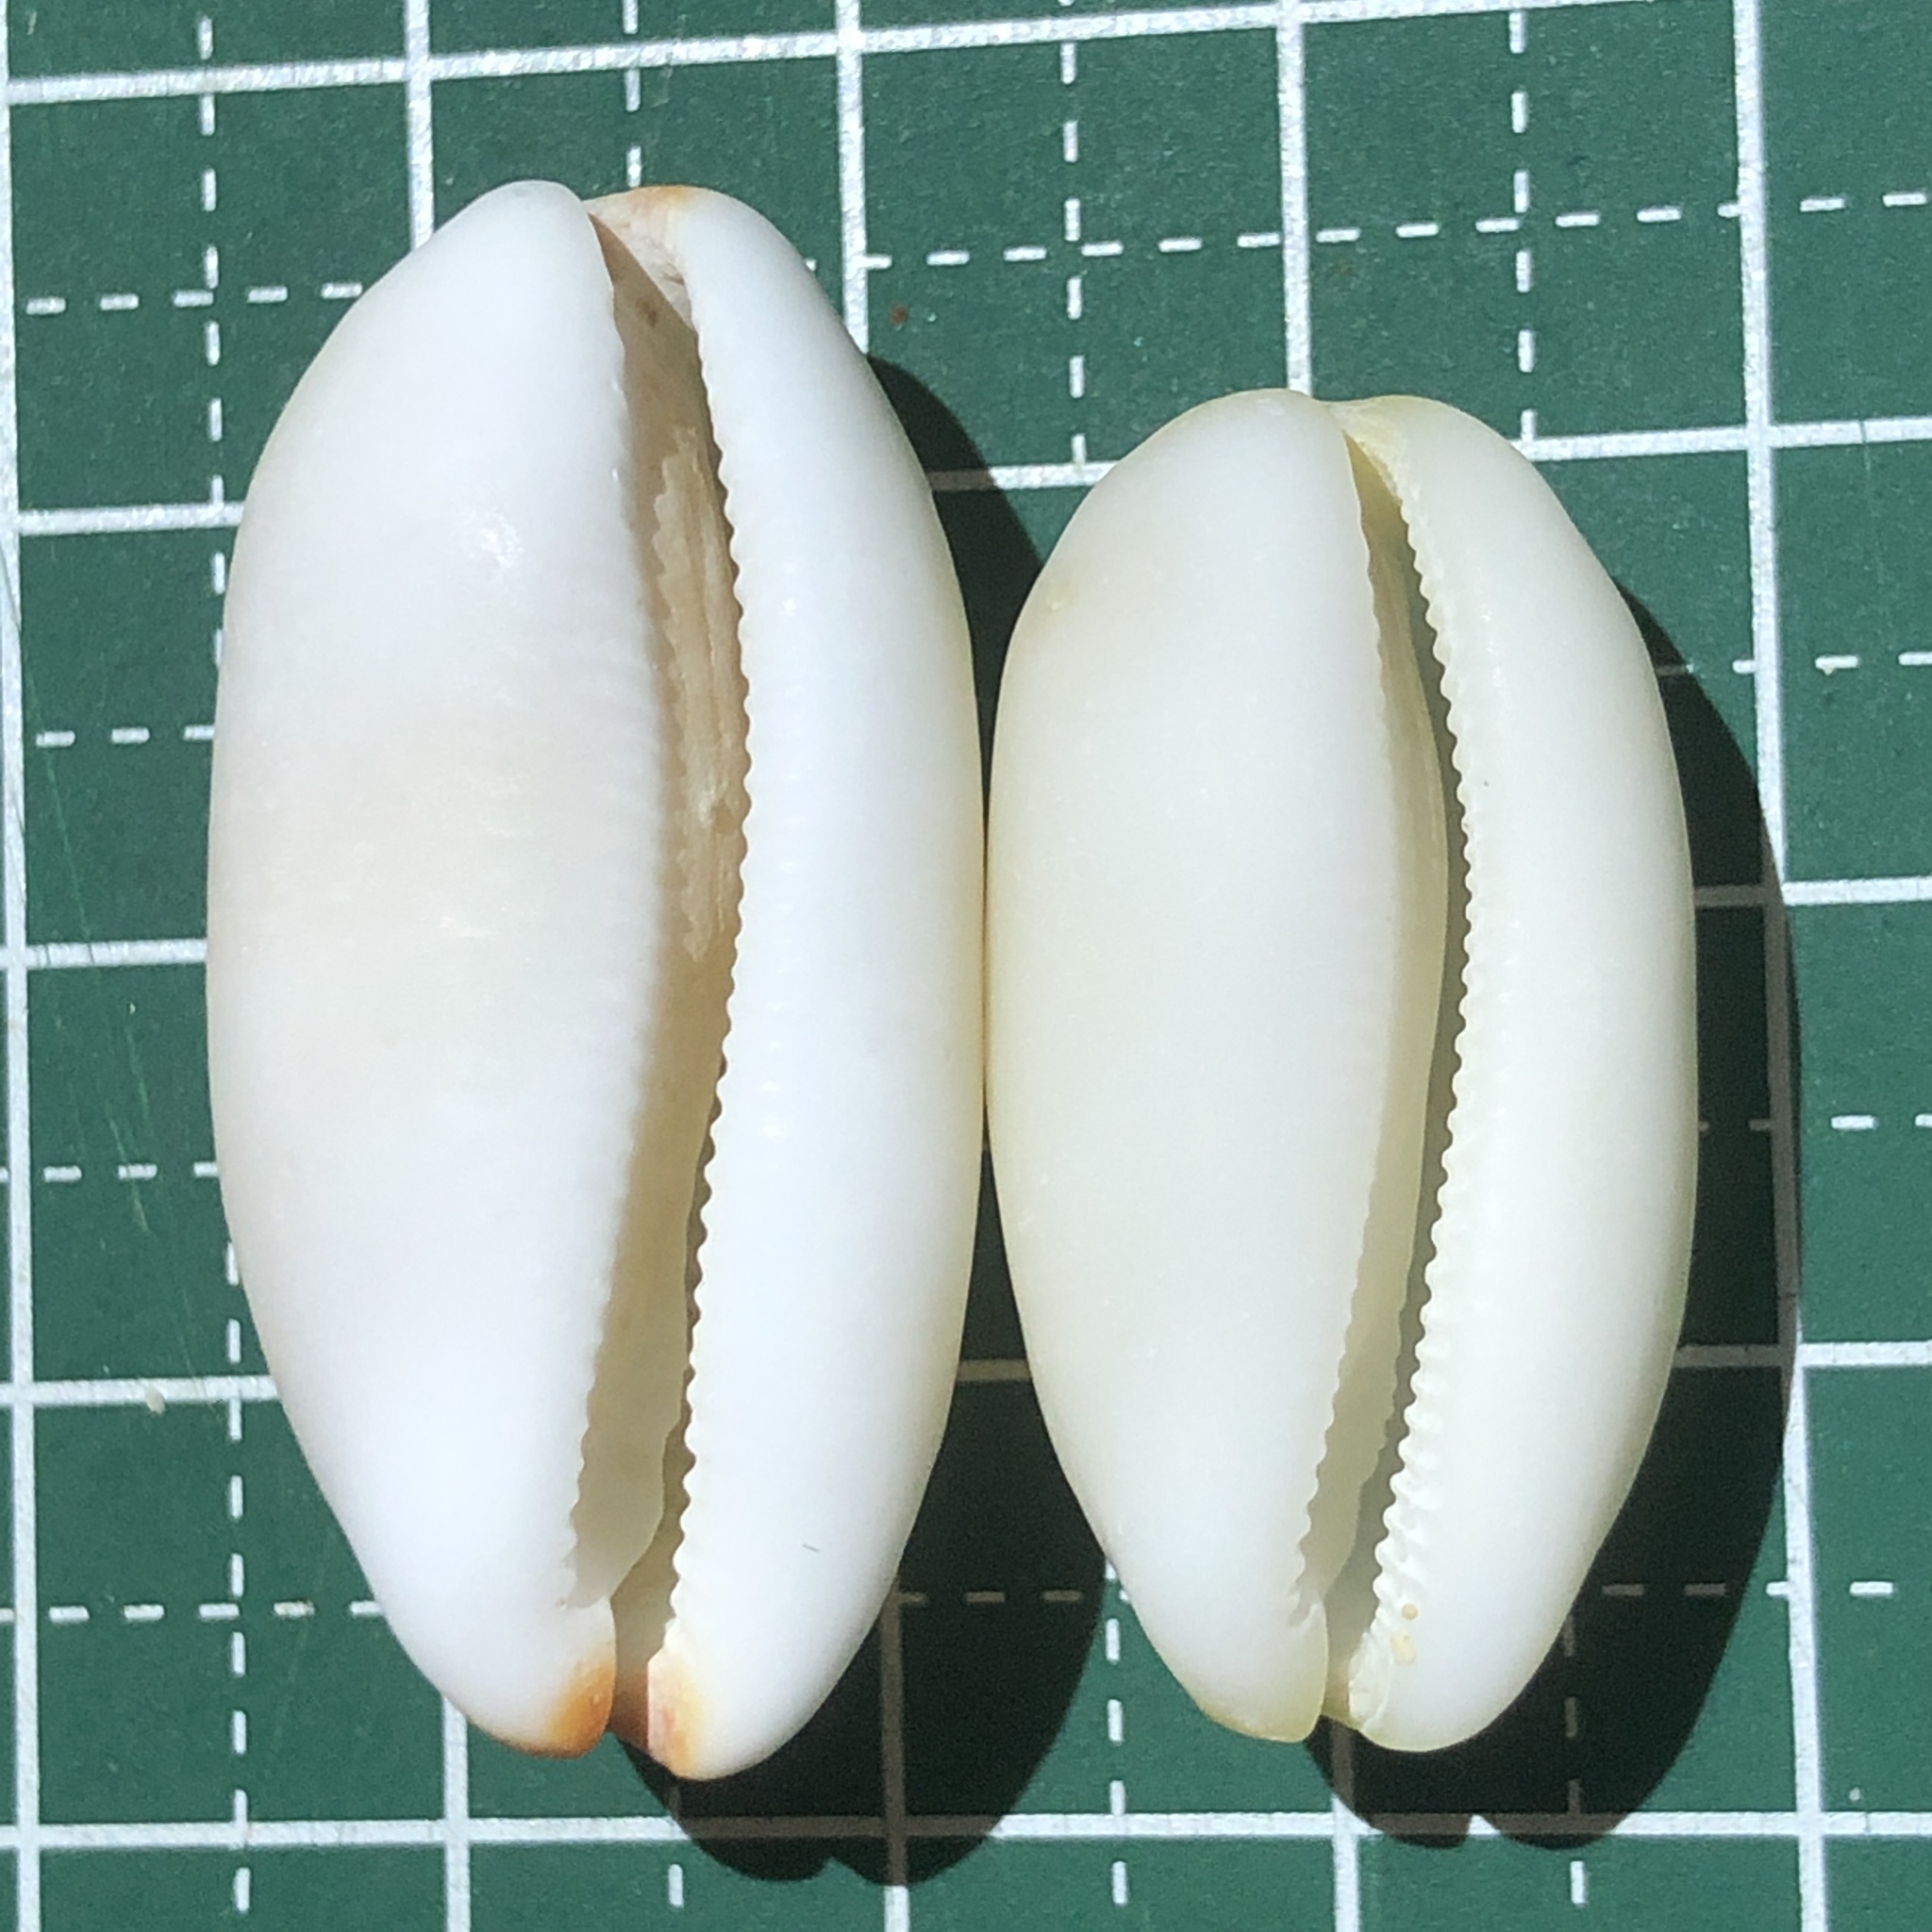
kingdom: Animalia
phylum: Mollusca
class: Gastropoda
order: Littorinimorpha
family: Cypraeidae
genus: Luria
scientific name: Luria isabella
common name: Isabell cowry
